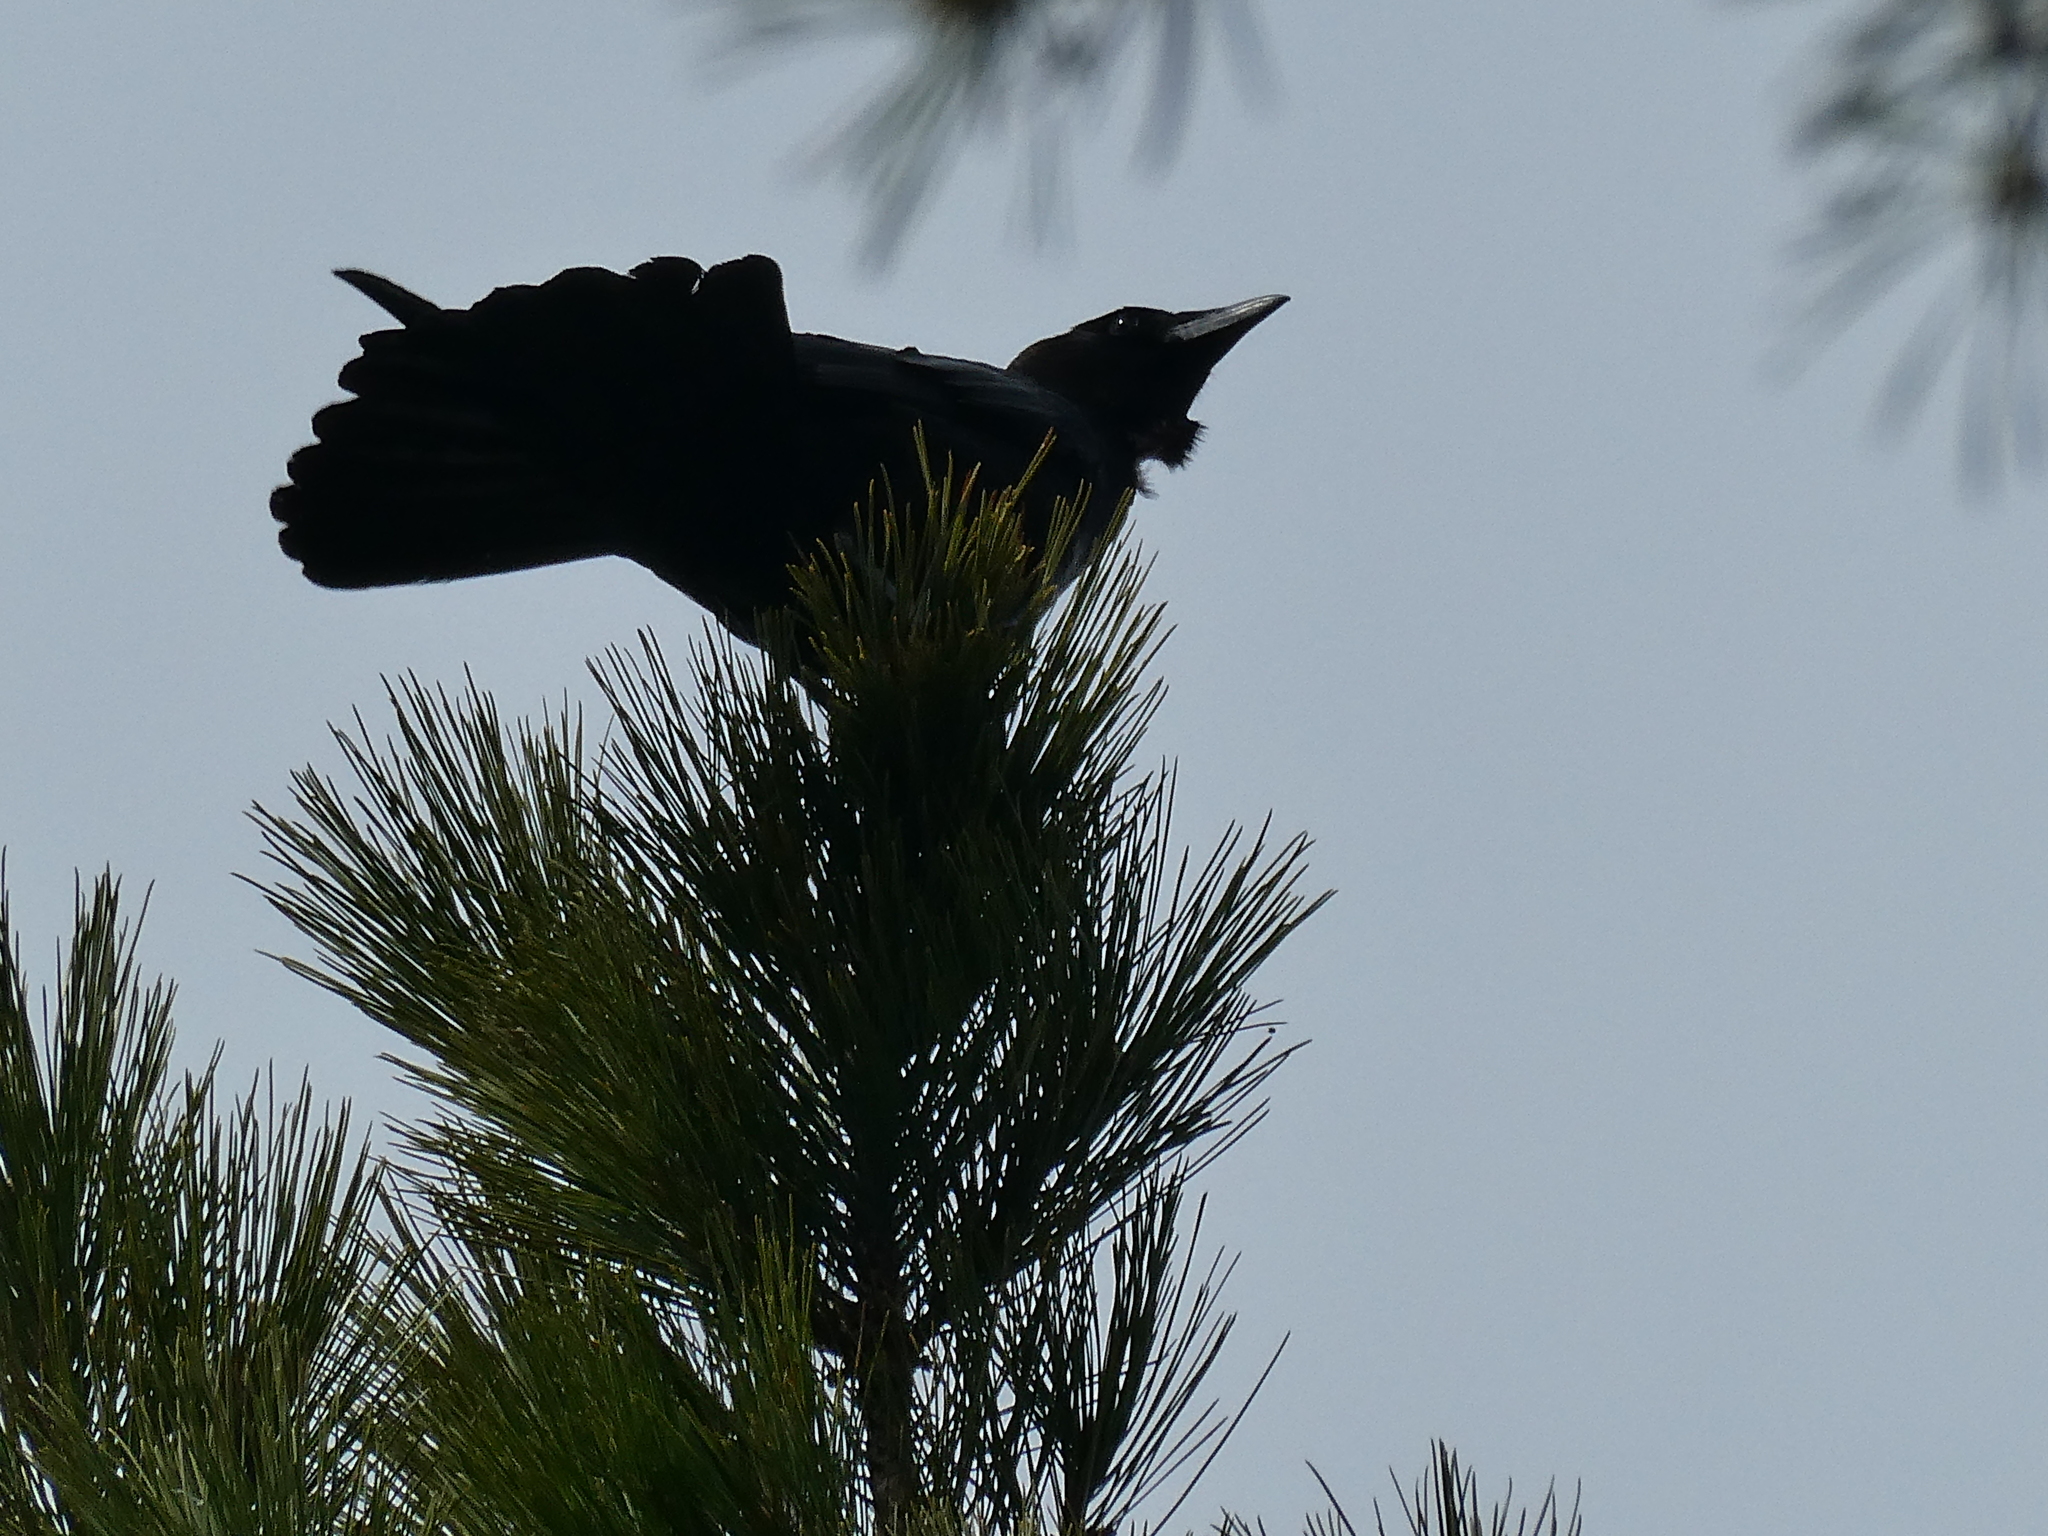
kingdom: Animalia
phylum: Chordata
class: Aves
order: Passeriformes
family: Corvidae
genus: Corvus
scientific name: Corvus brachyrhynchos
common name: American crow
